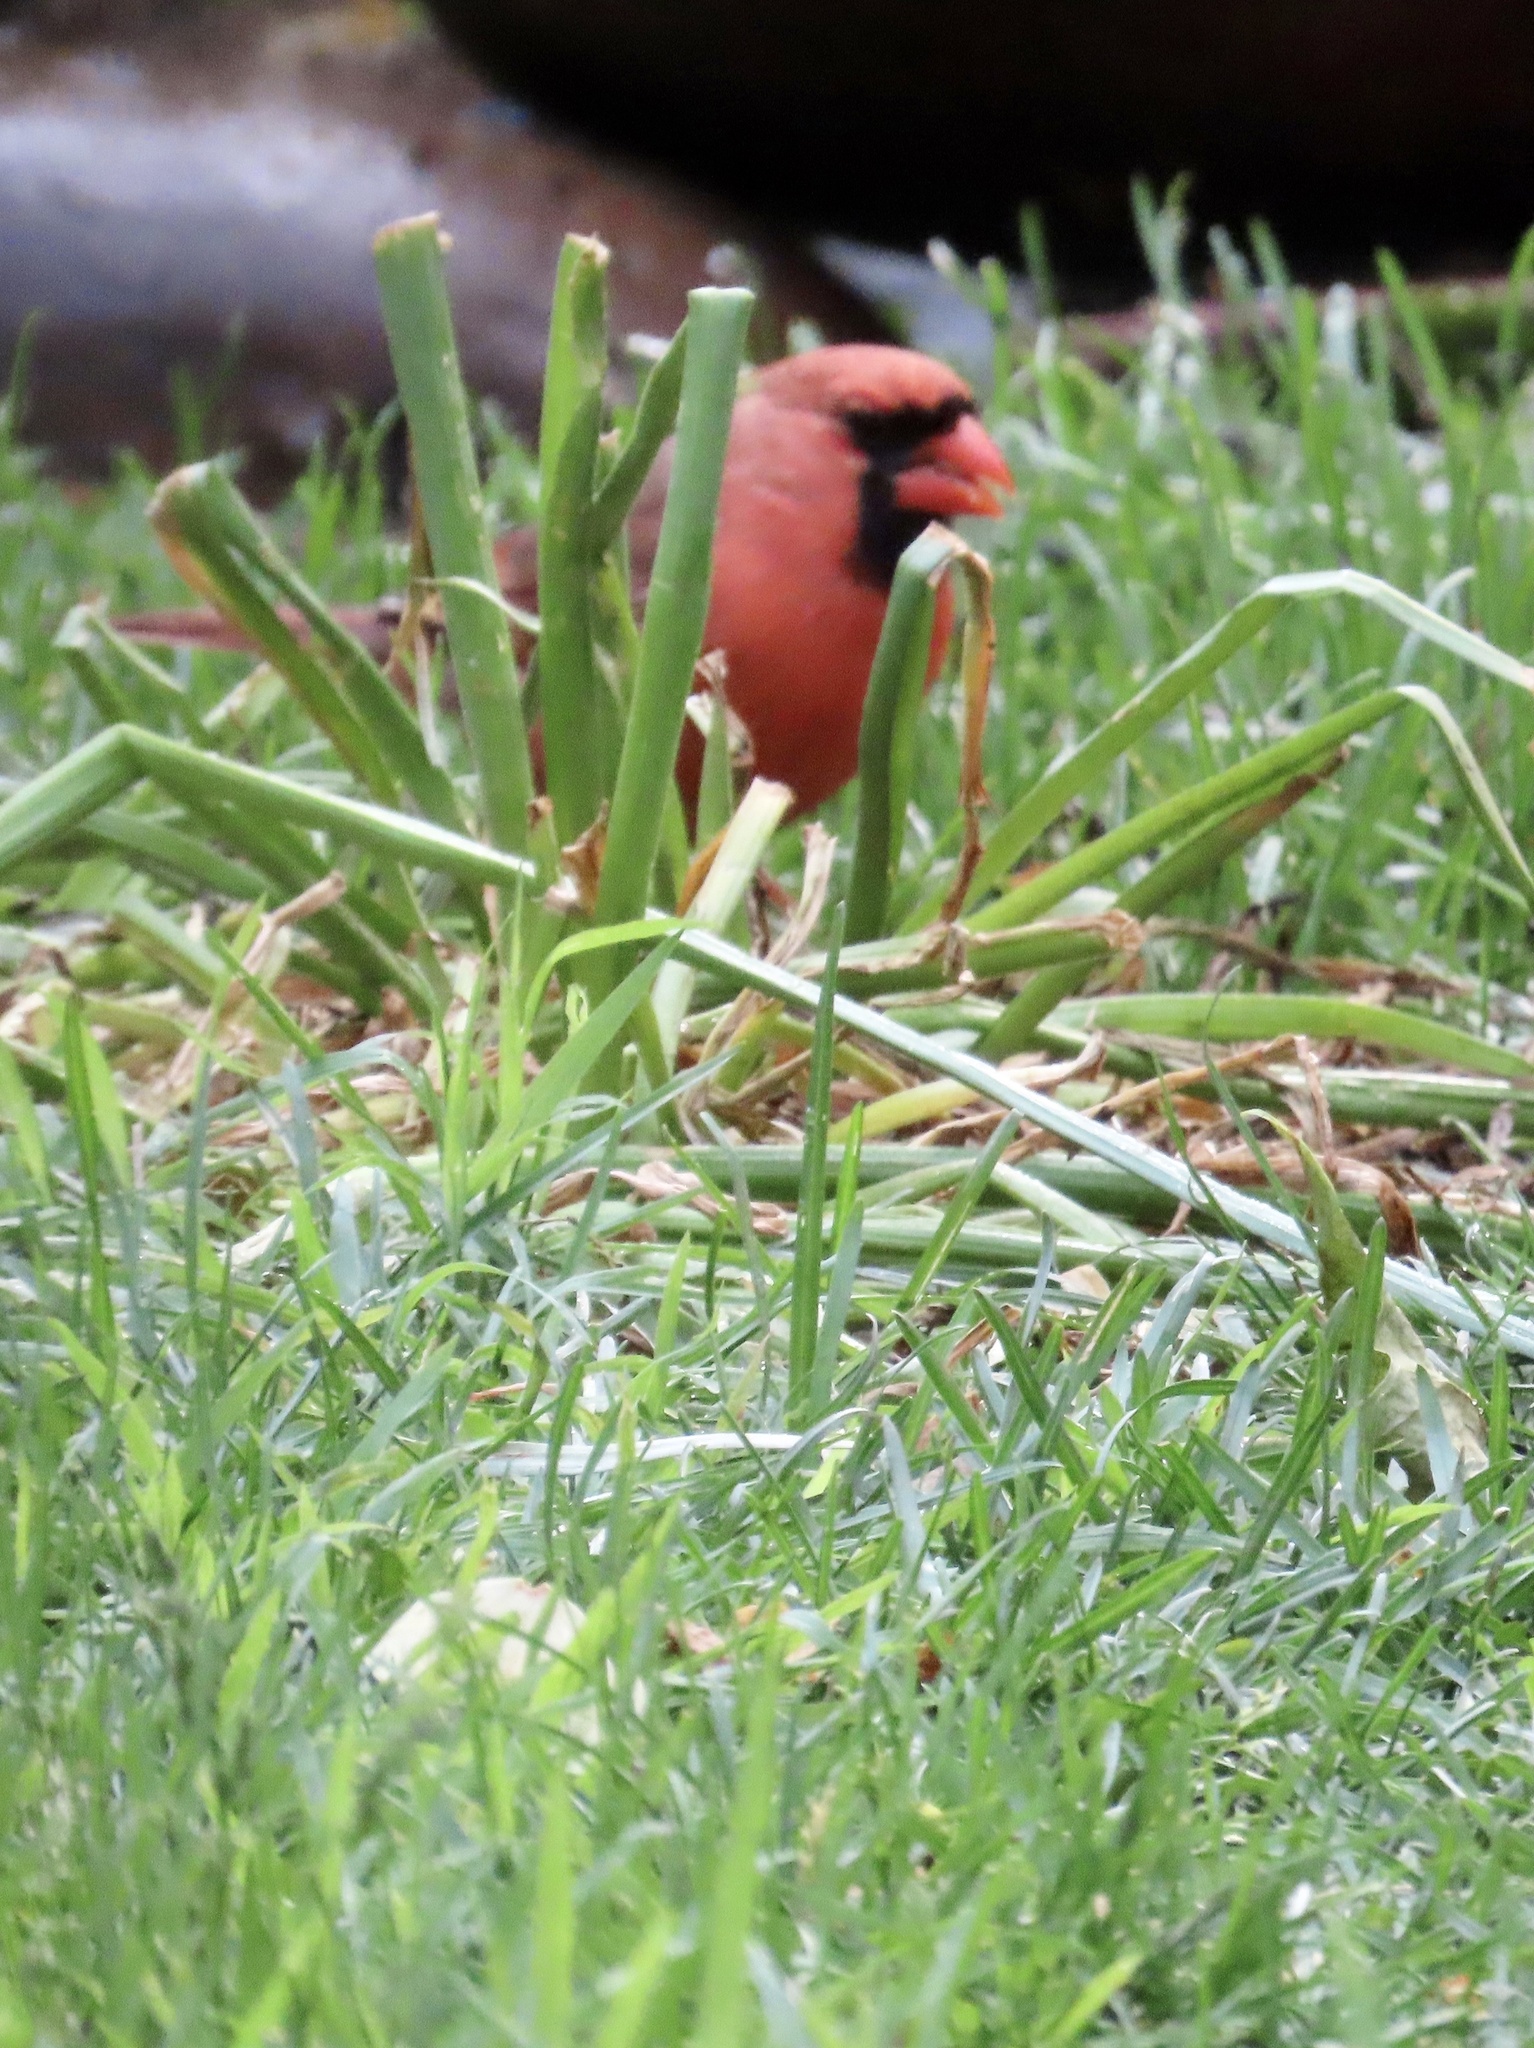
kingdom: Animalia
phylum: Chordata
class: Aves
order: Passeriformes
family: Cardinalidae
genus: Cardinalis
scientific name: Cardinalis cardinalis
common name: Northern cardinal
